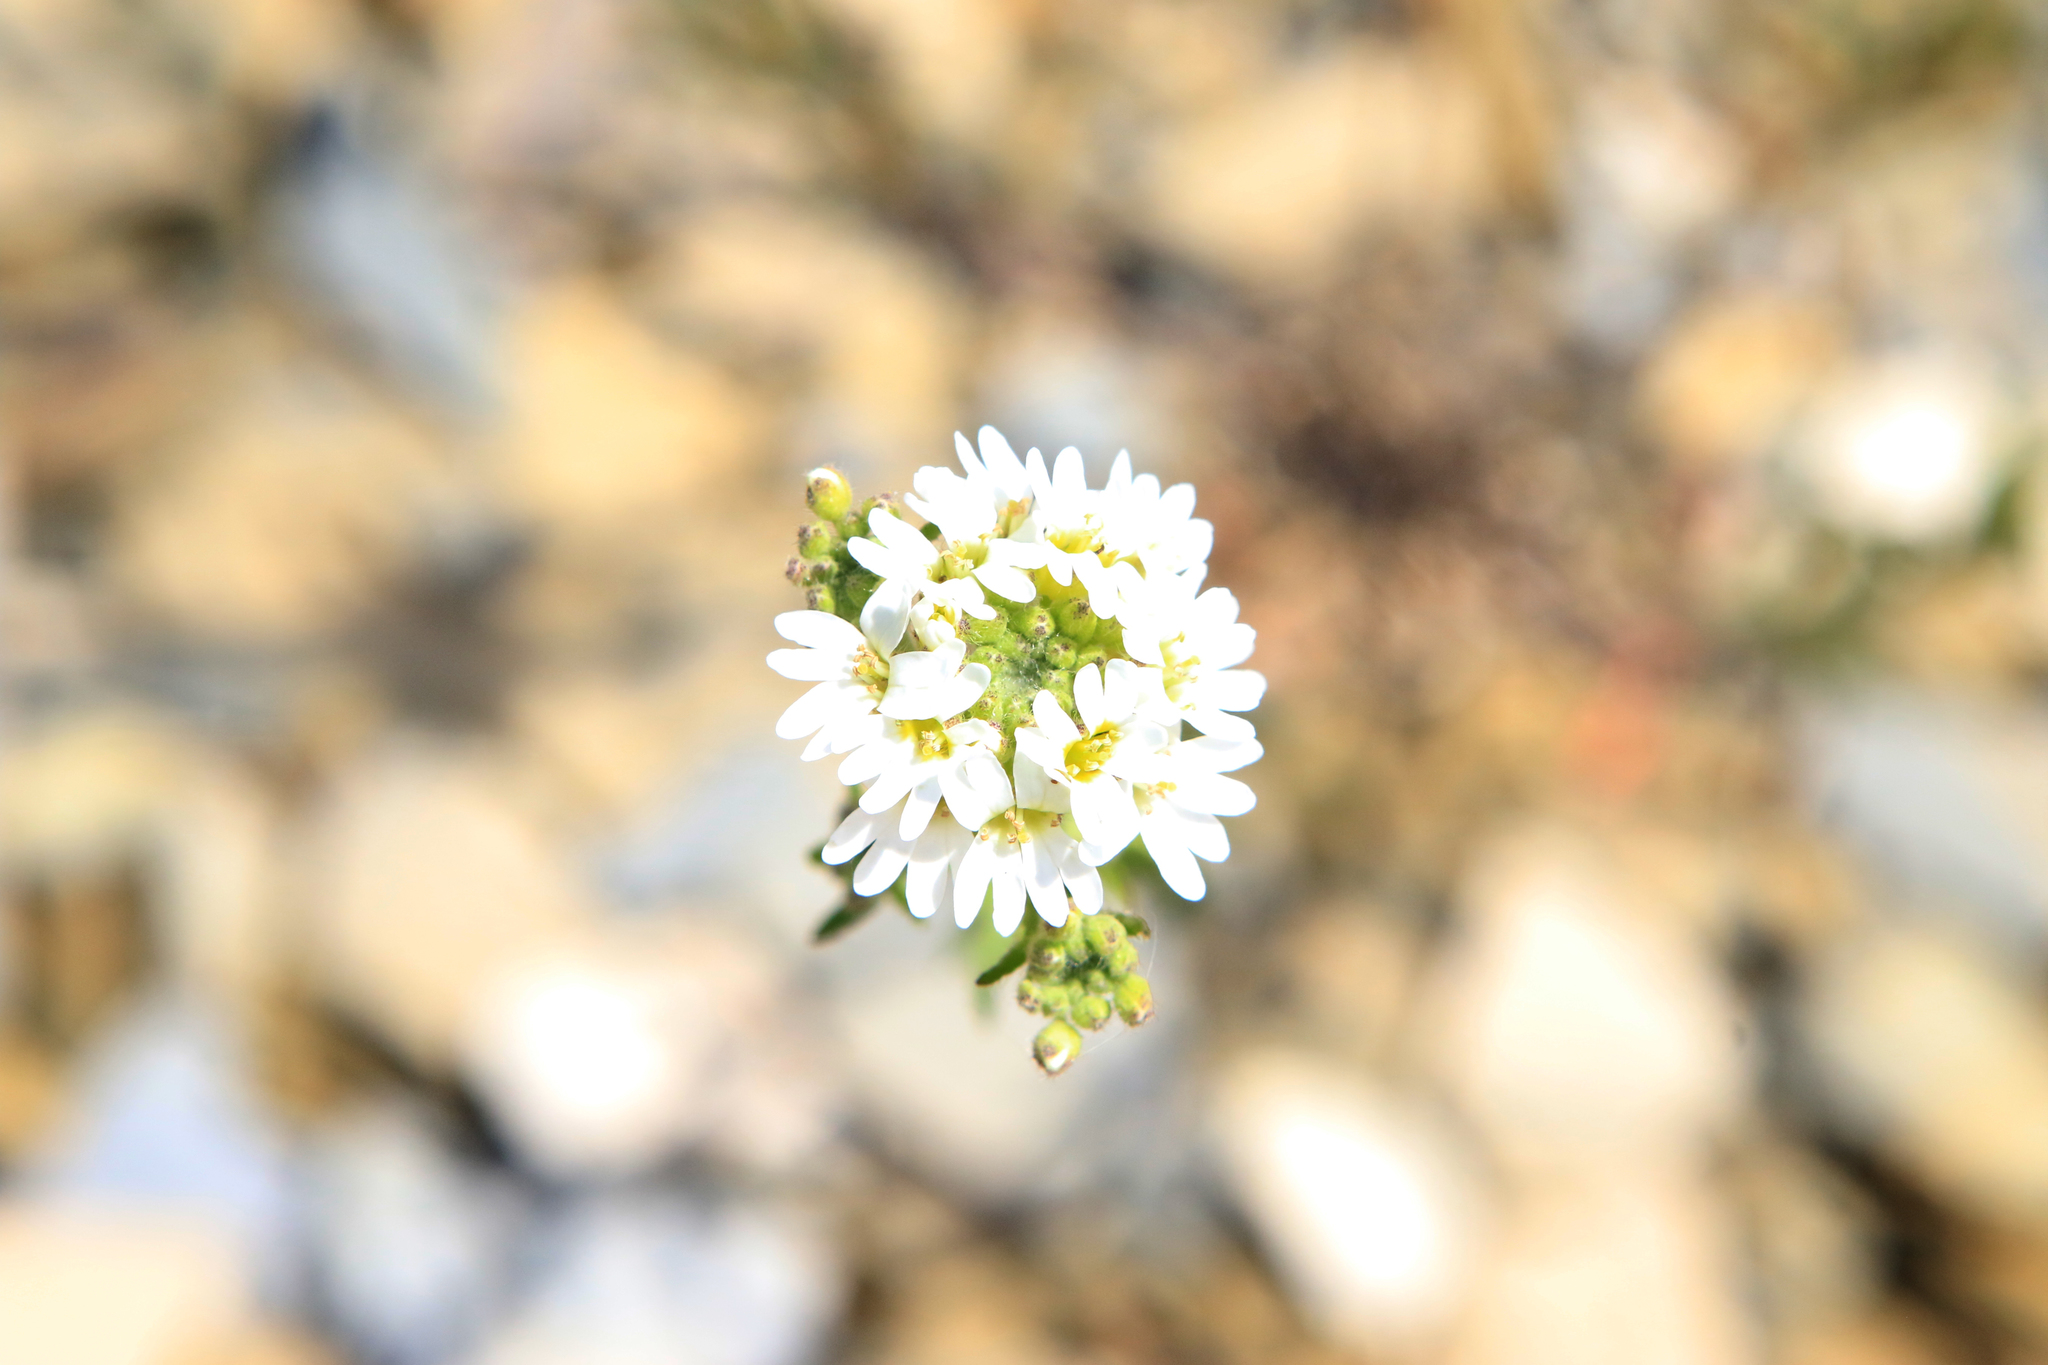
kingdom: Plantae
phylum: Tracheophyta
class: Magnoliopsida
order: Brassicales
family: Brassicaceae
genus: Berteroa
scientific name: Berteroa incana
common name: Hoary alison
